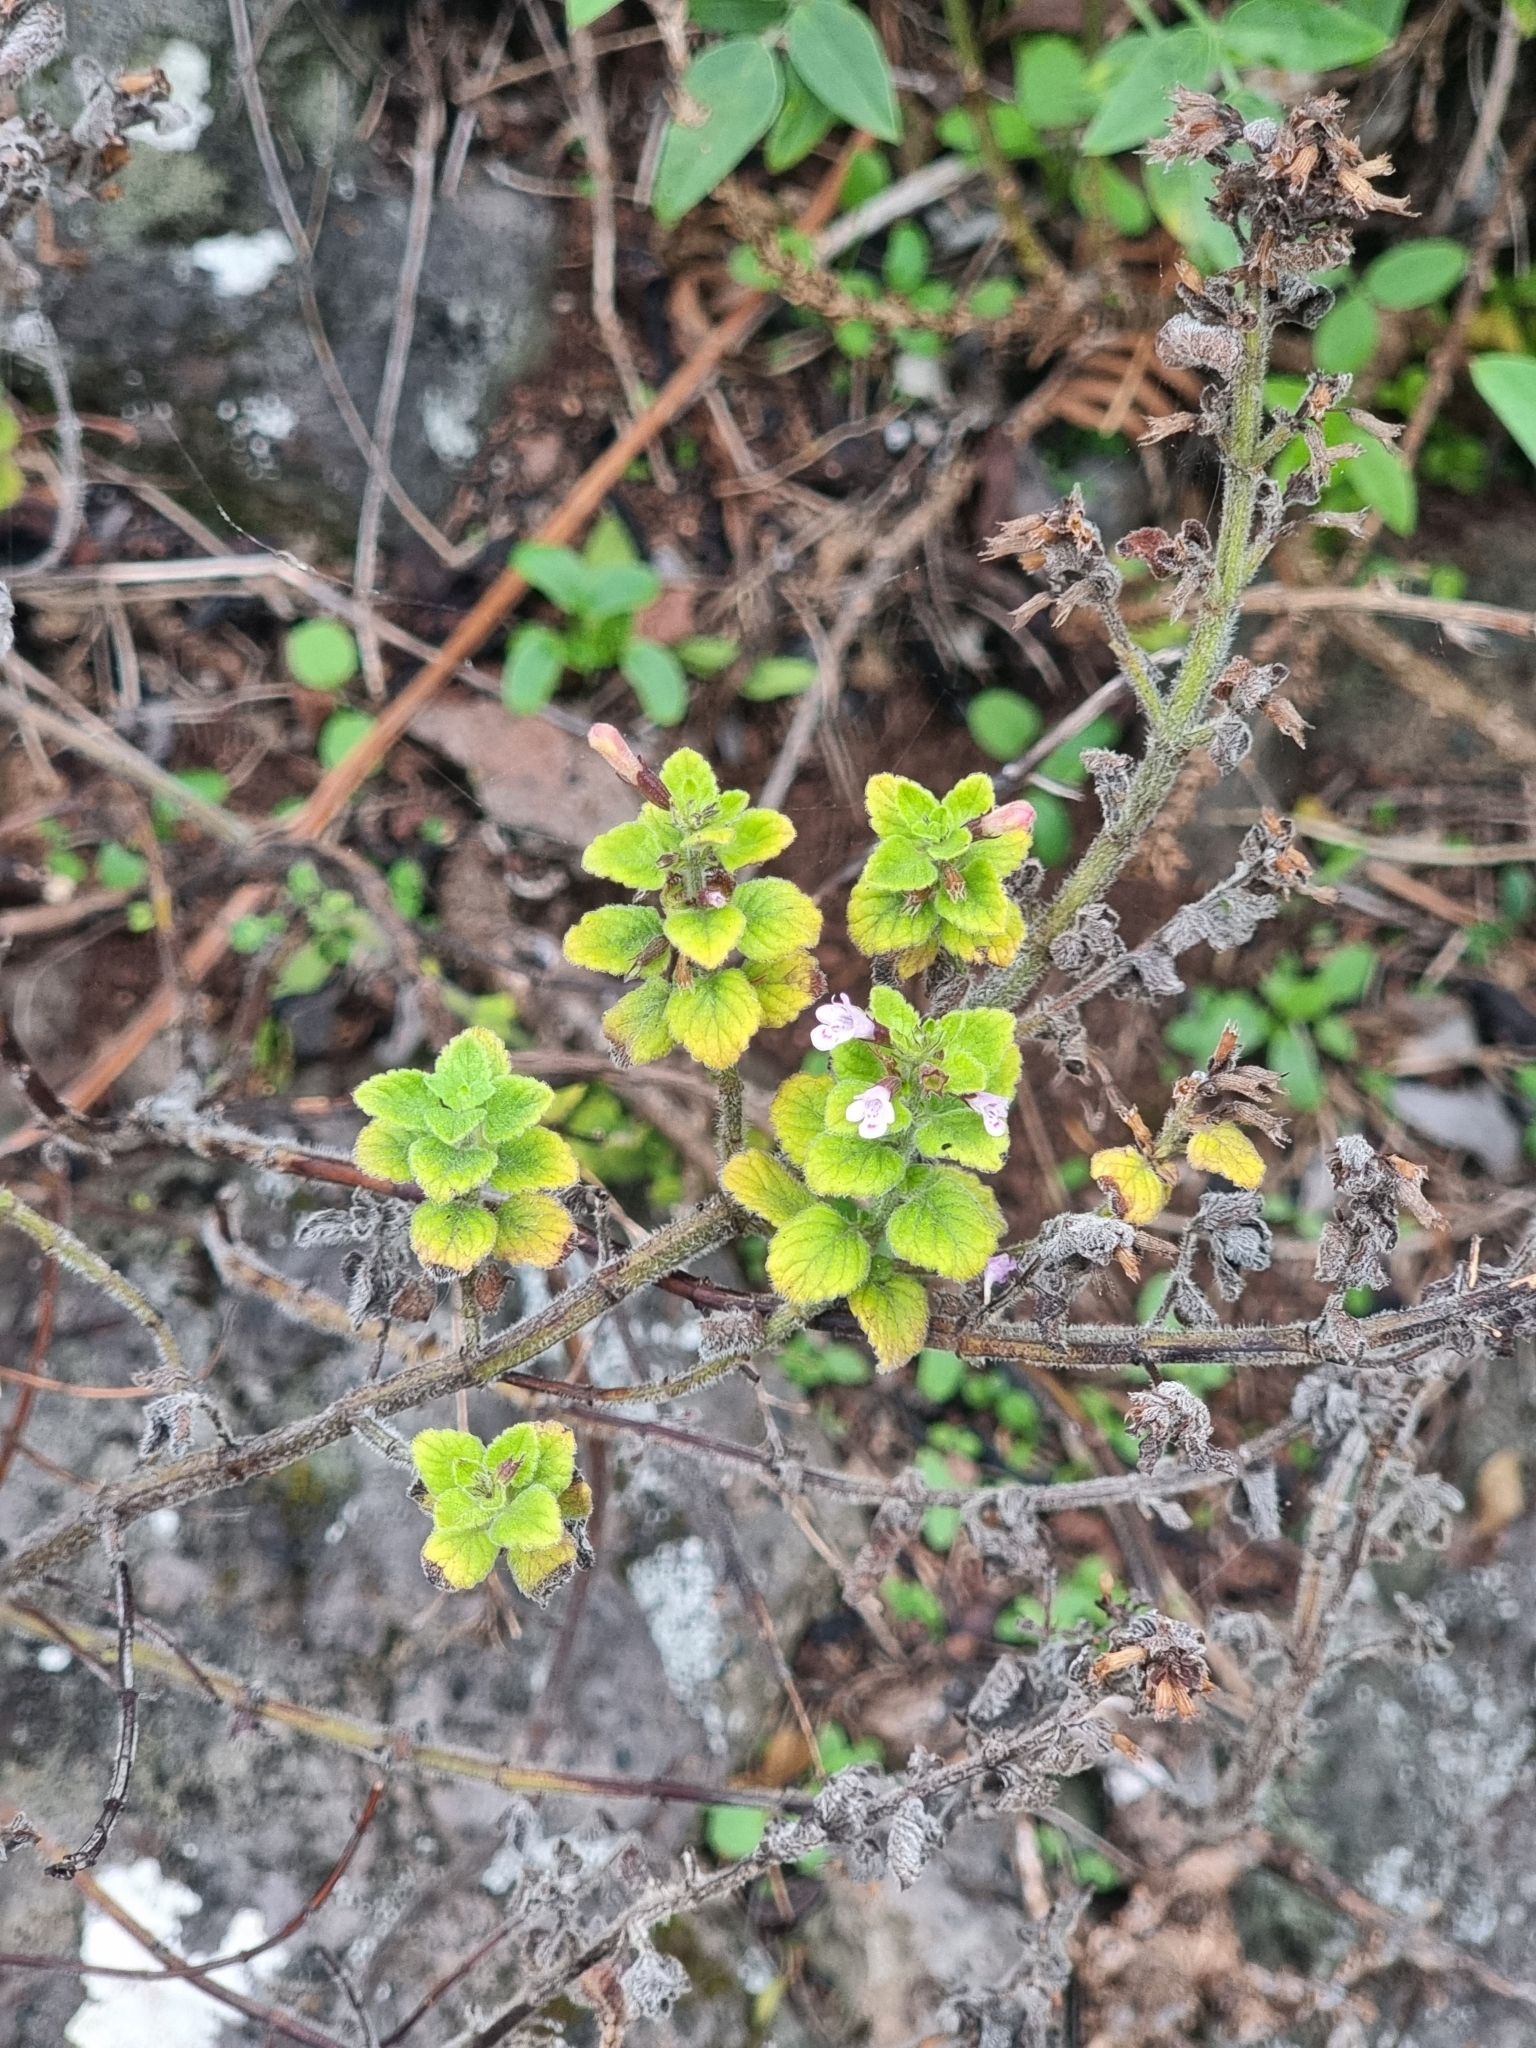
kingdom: Plantae
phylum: Tracheophyta
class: Magnoliopsida
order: Lamiales
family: Lamiaceae
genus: Clinopodium
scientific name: Clinopodium menthifolium
